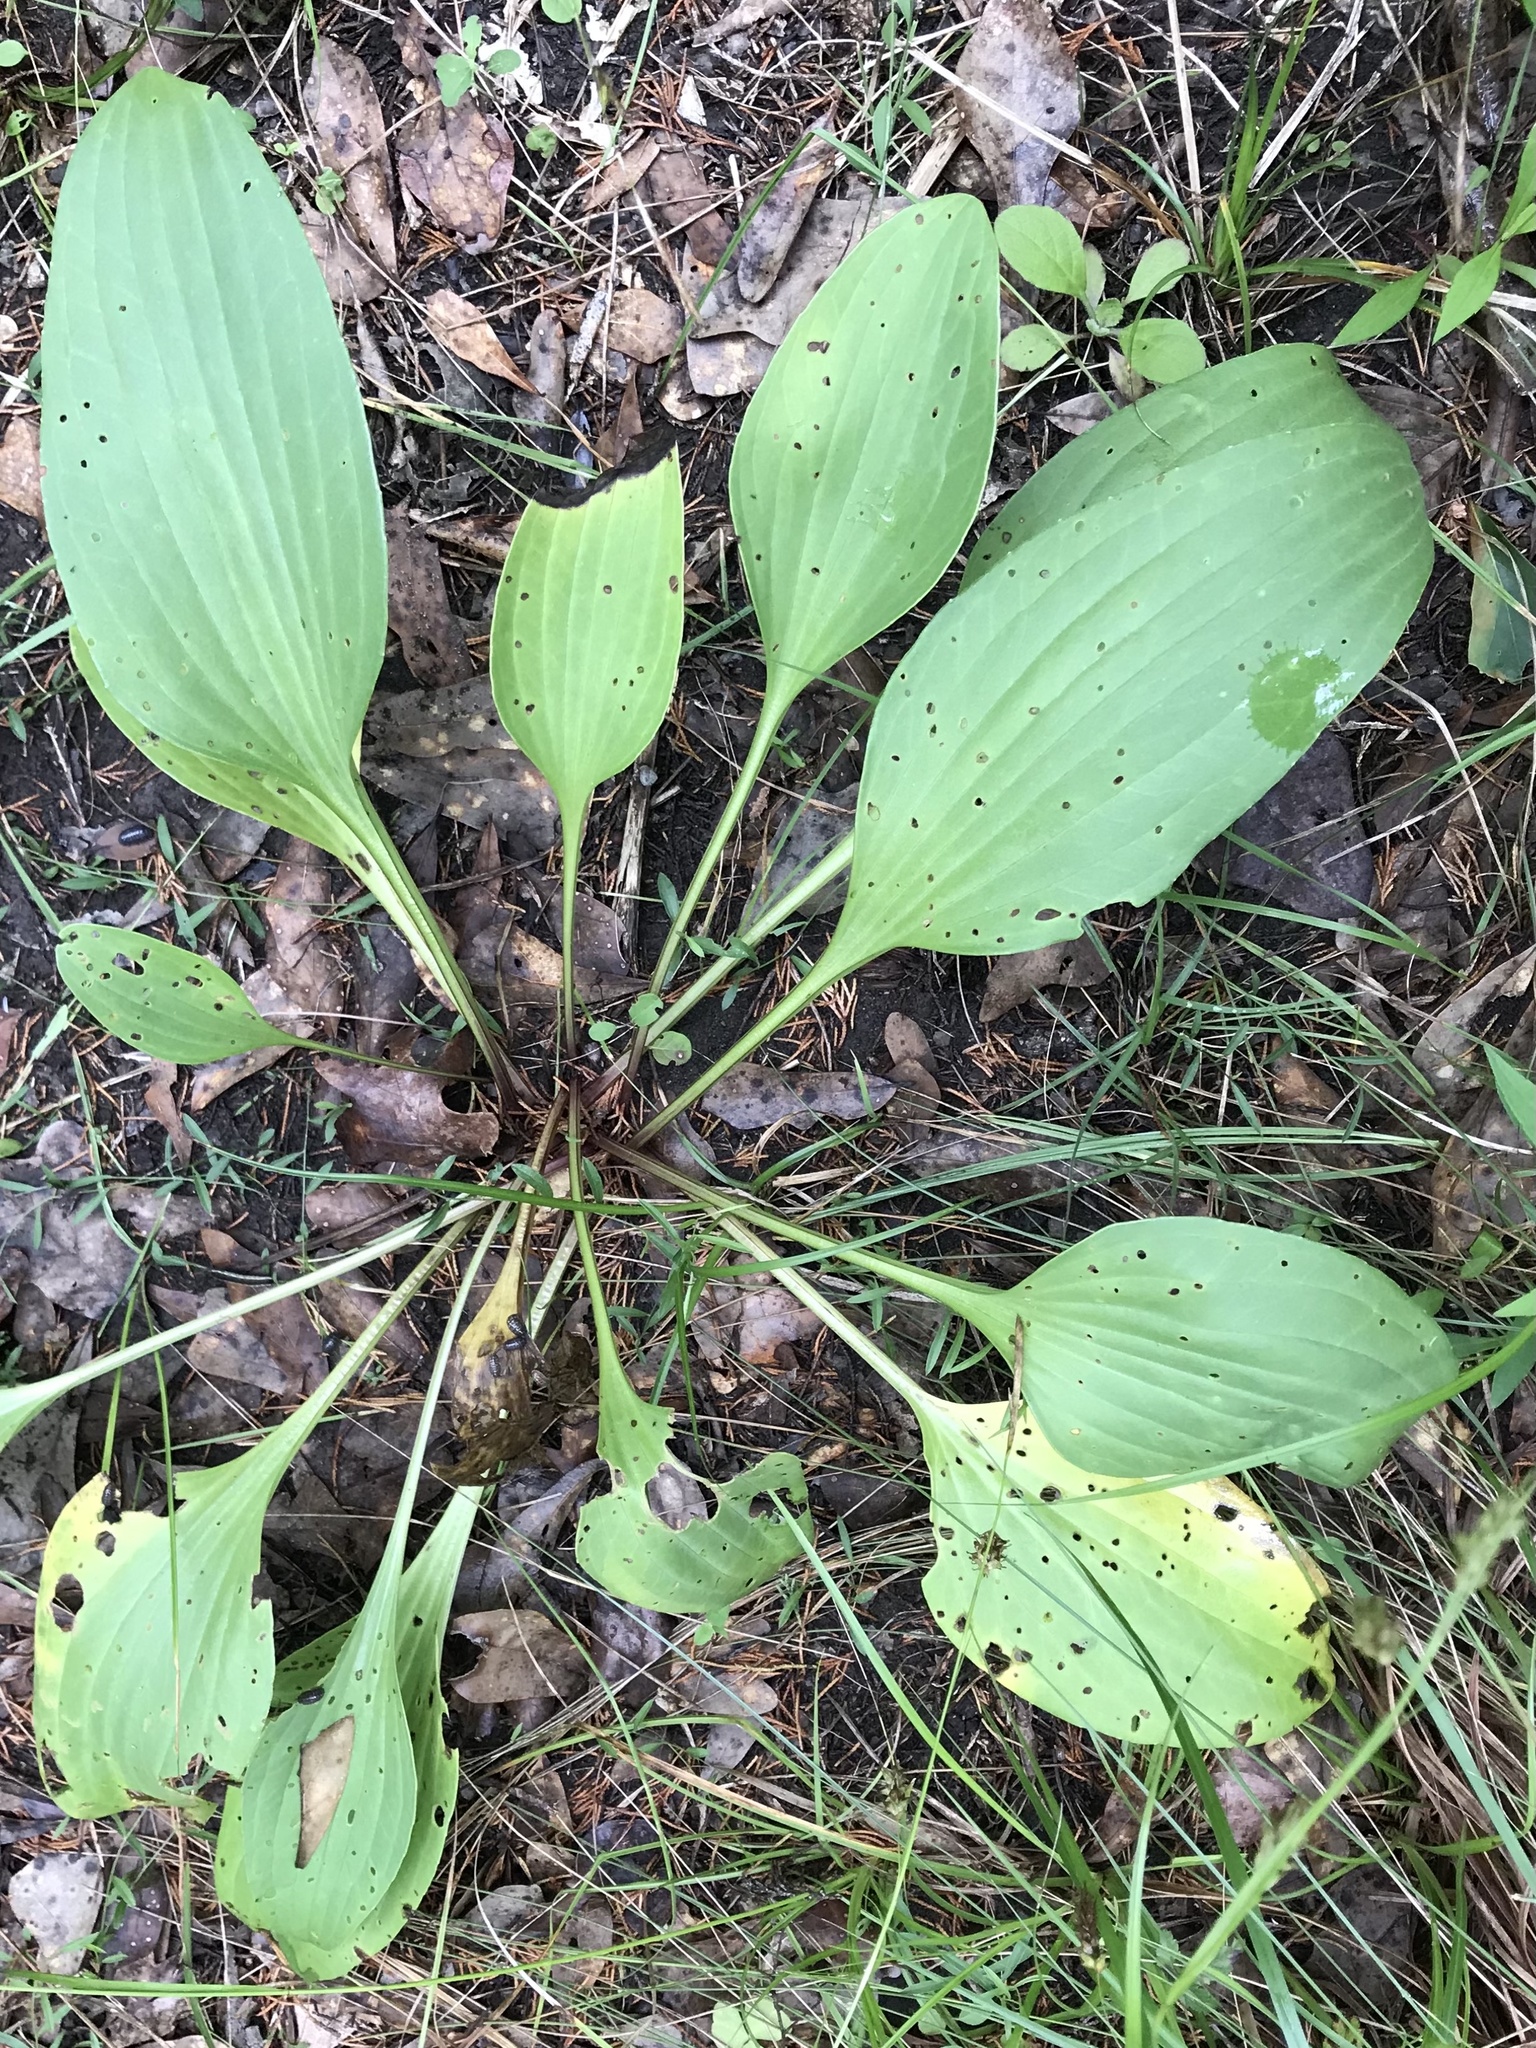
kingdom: Plantae
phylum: Tracheophyta
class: Magnoliopsida
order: Asterales
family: Asteraceae
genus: Arnoglossum
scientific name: Arnoglossum plantagineum
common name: Groove-stemmed indian-plantain
